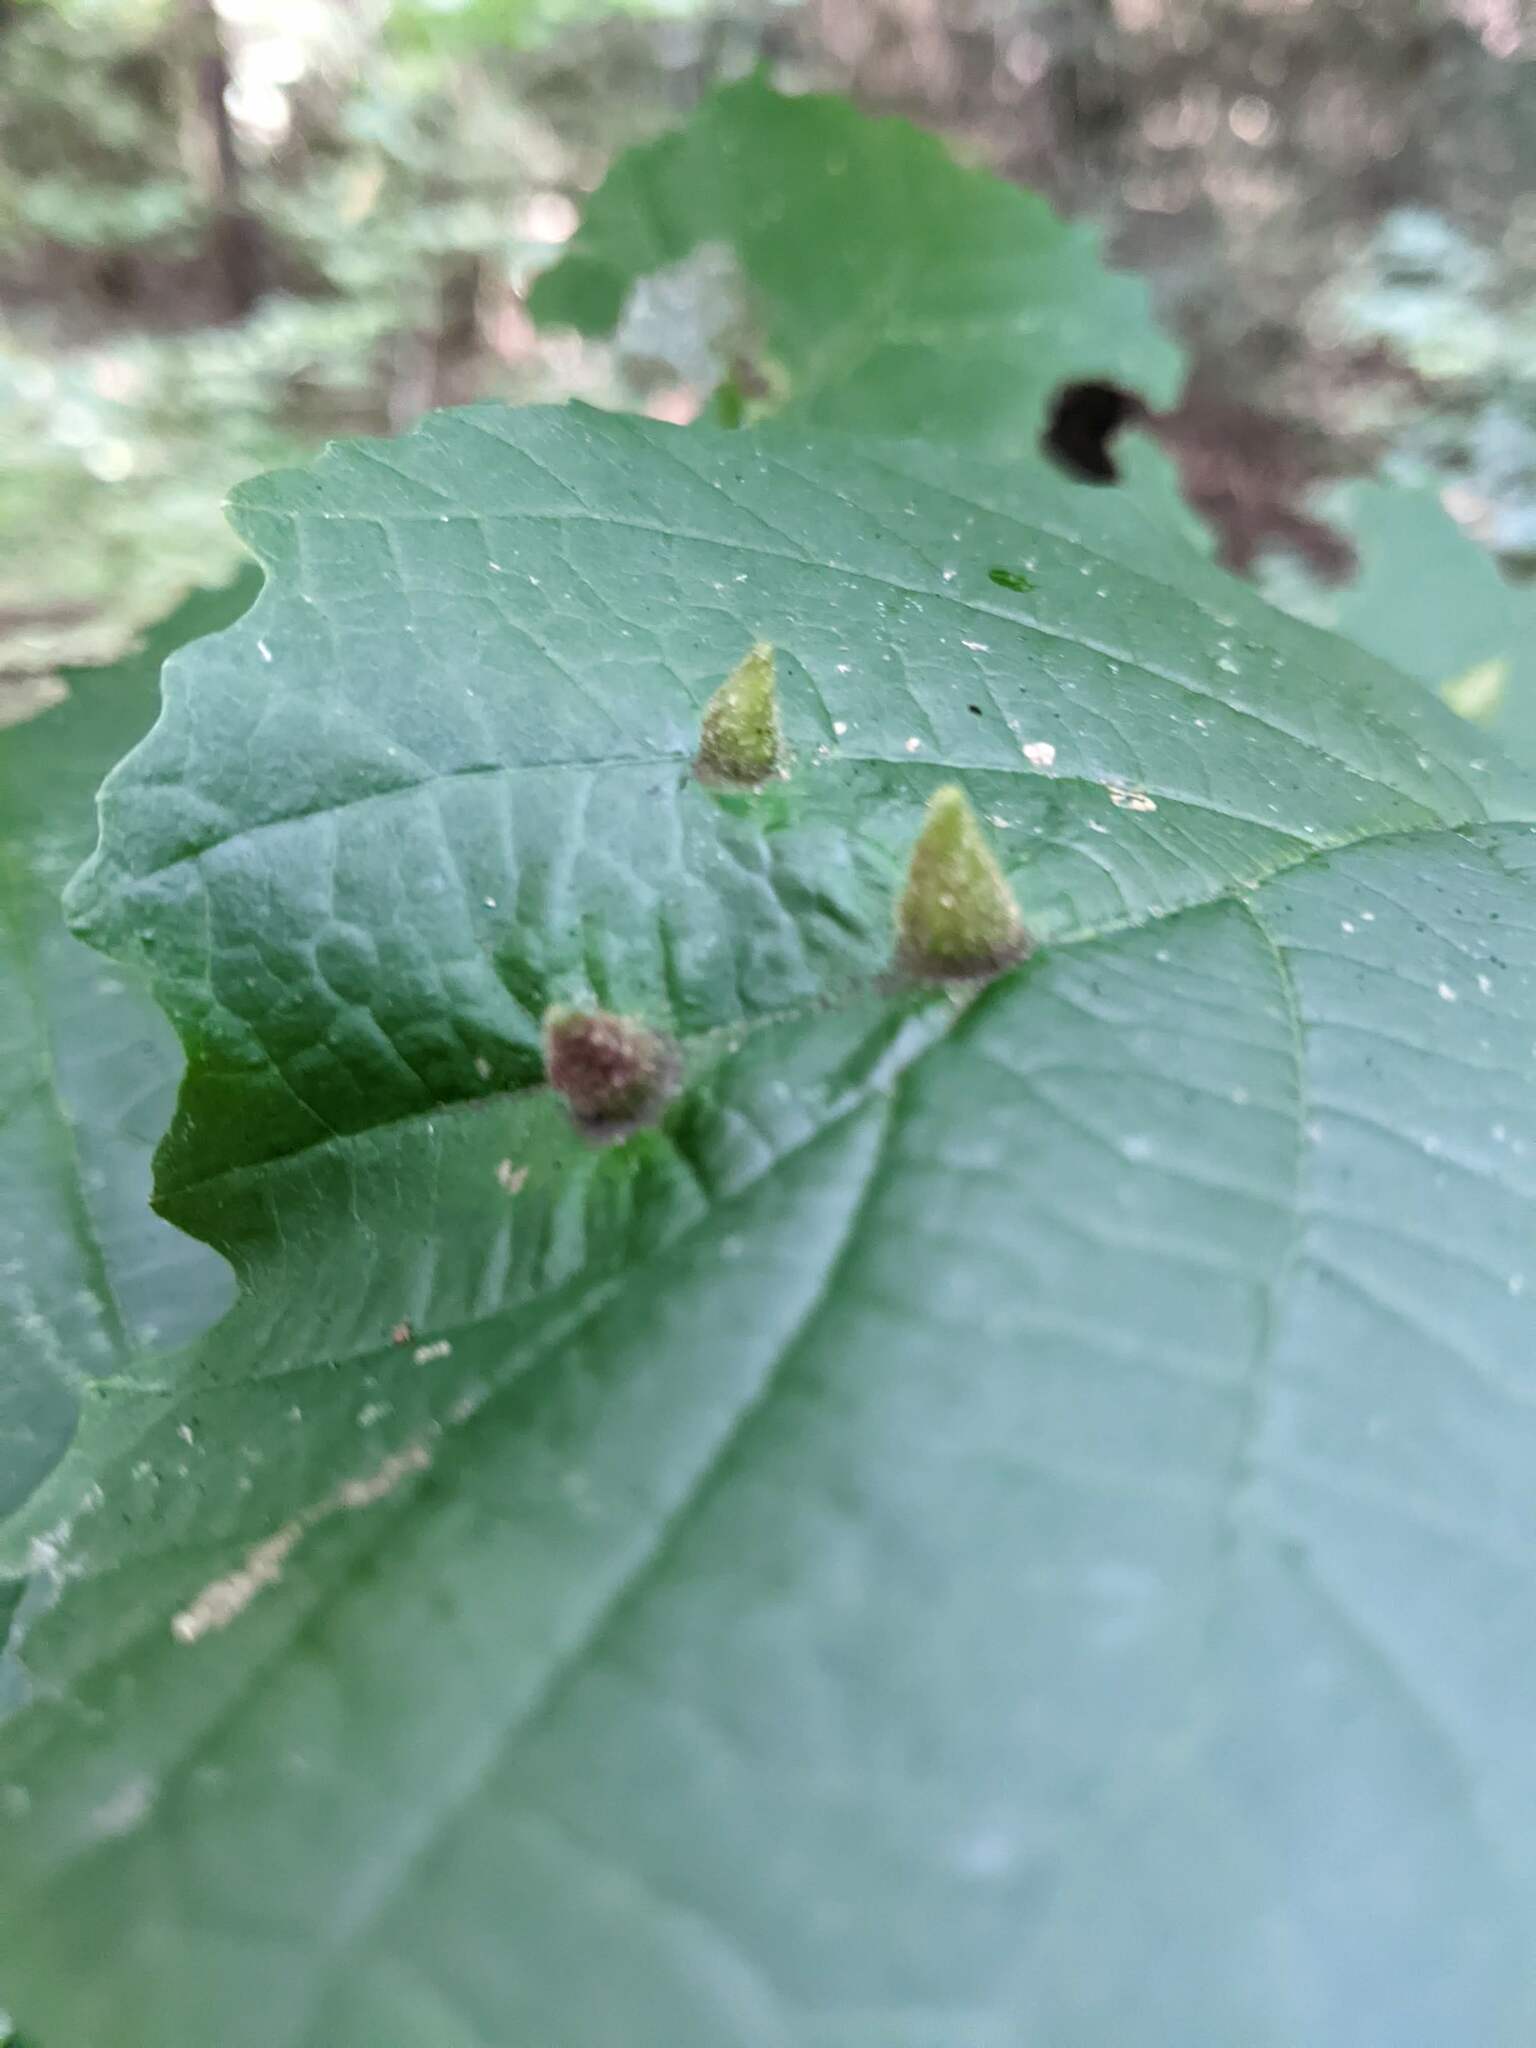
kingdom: Animalia
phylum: Arthropoda
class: Insecta
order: Hemiptera
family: Aphididae
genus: Hormaphis
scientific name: Hormaphis hamamelidis
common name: Witch-hazel cone gall aphid
